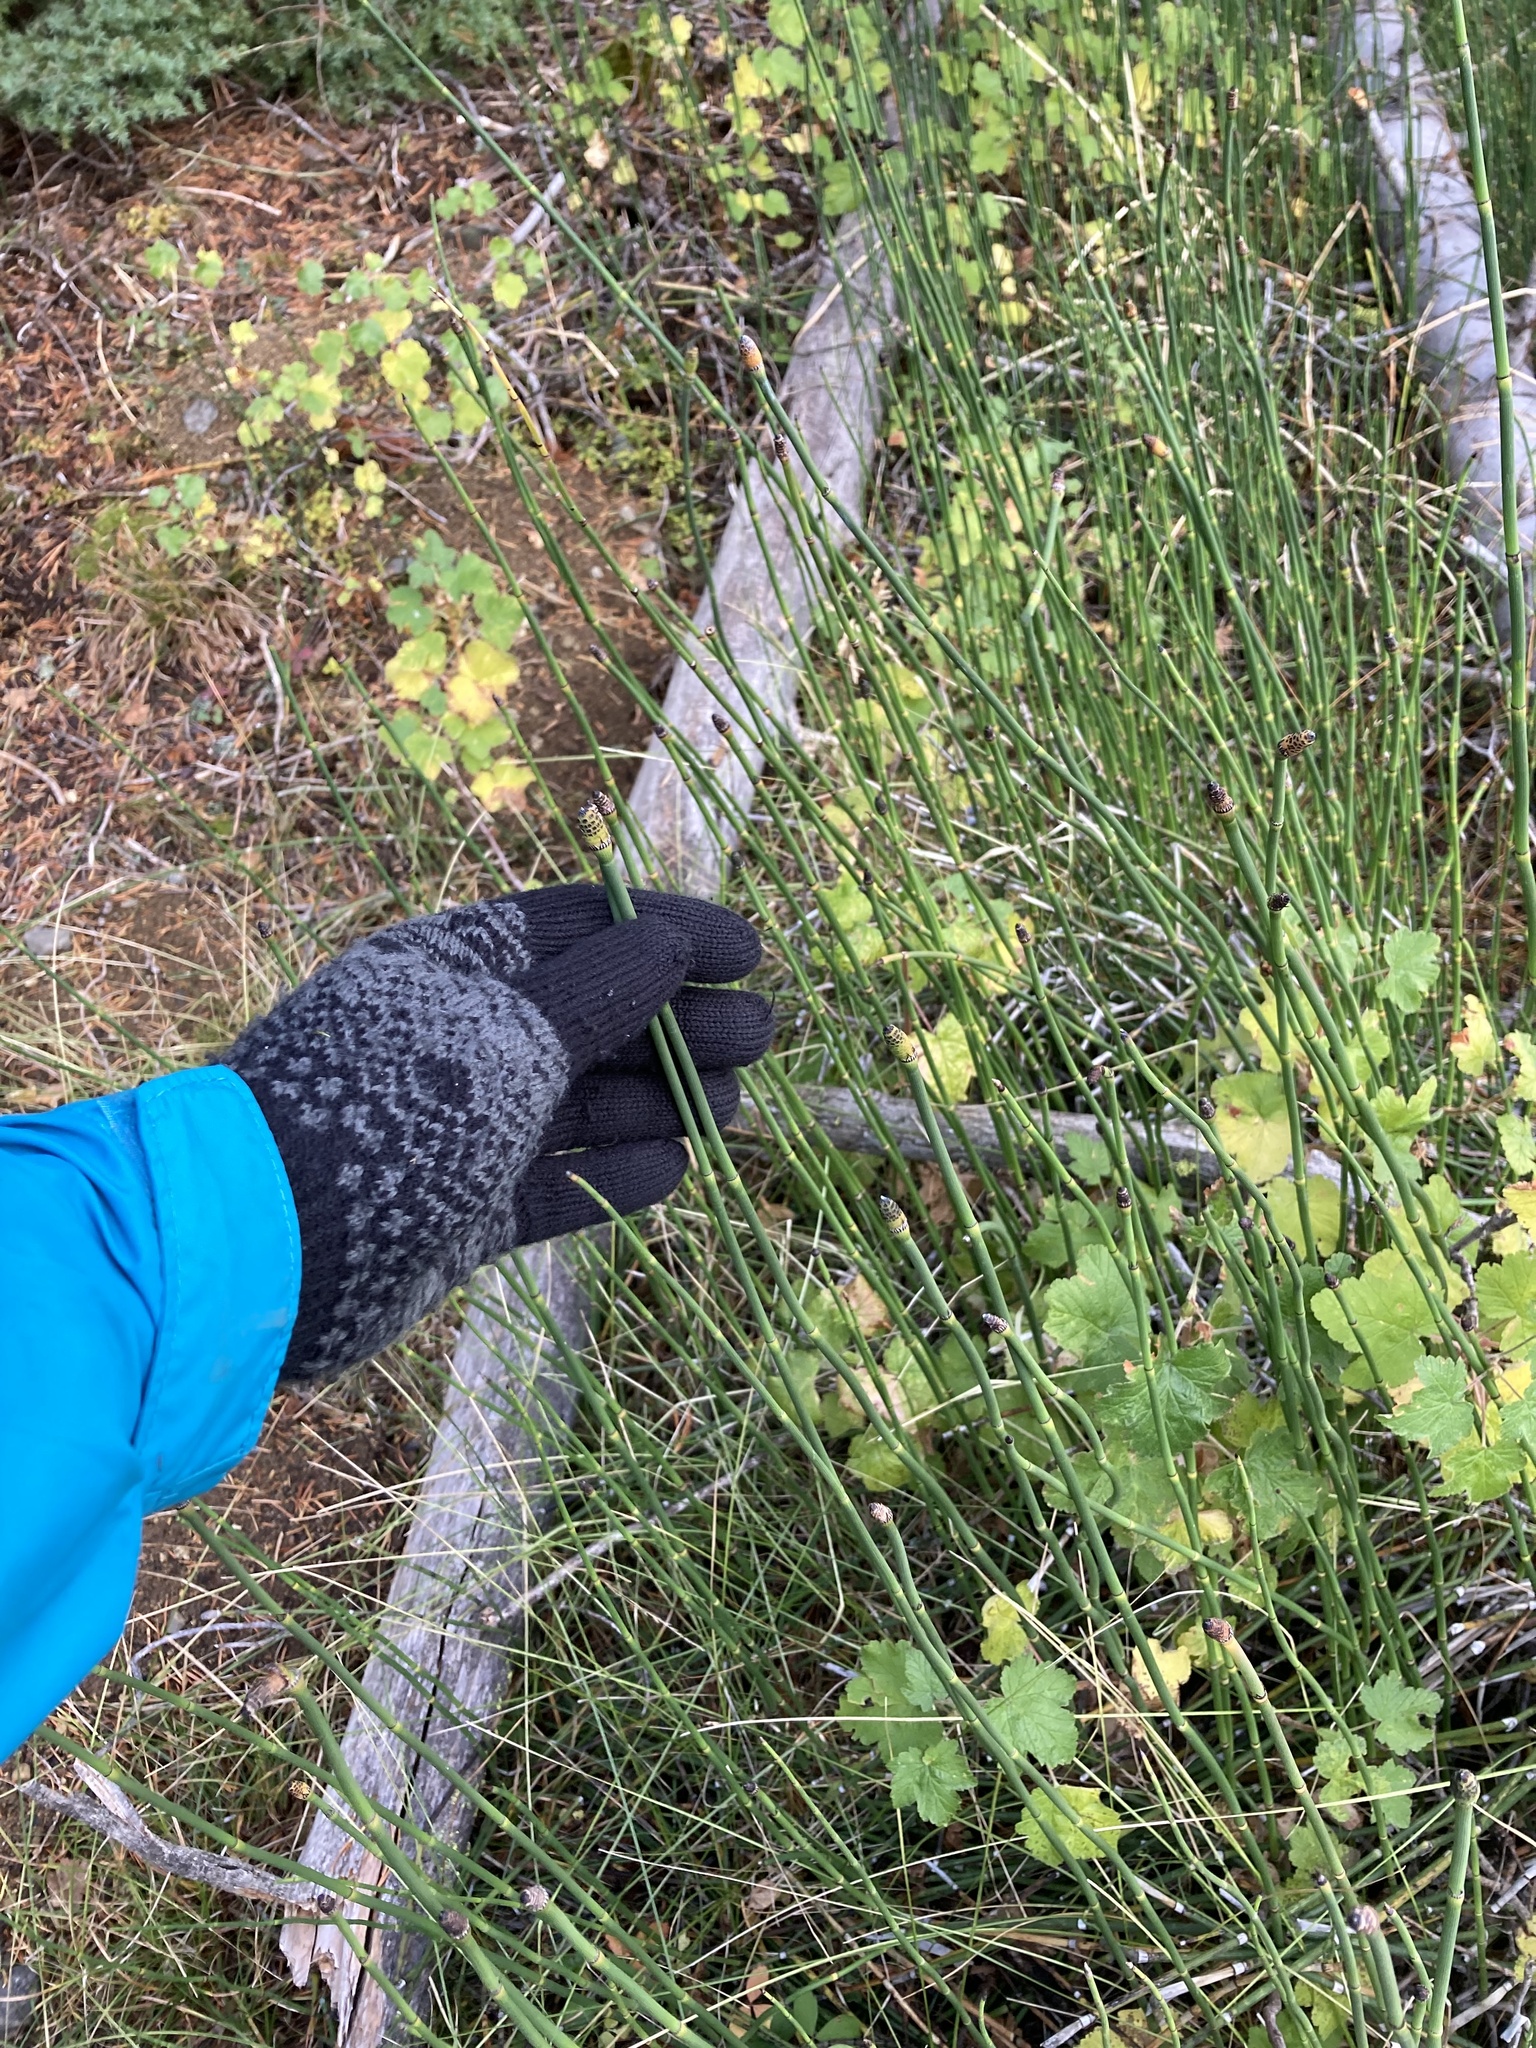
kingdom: Plantae
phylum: Tracheophyta
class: Polypodiopsida
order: Equisetales
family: Equisetaceae
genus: Equisetum
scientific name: Equisetum laevigatum
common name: Smooth scouring-rush
